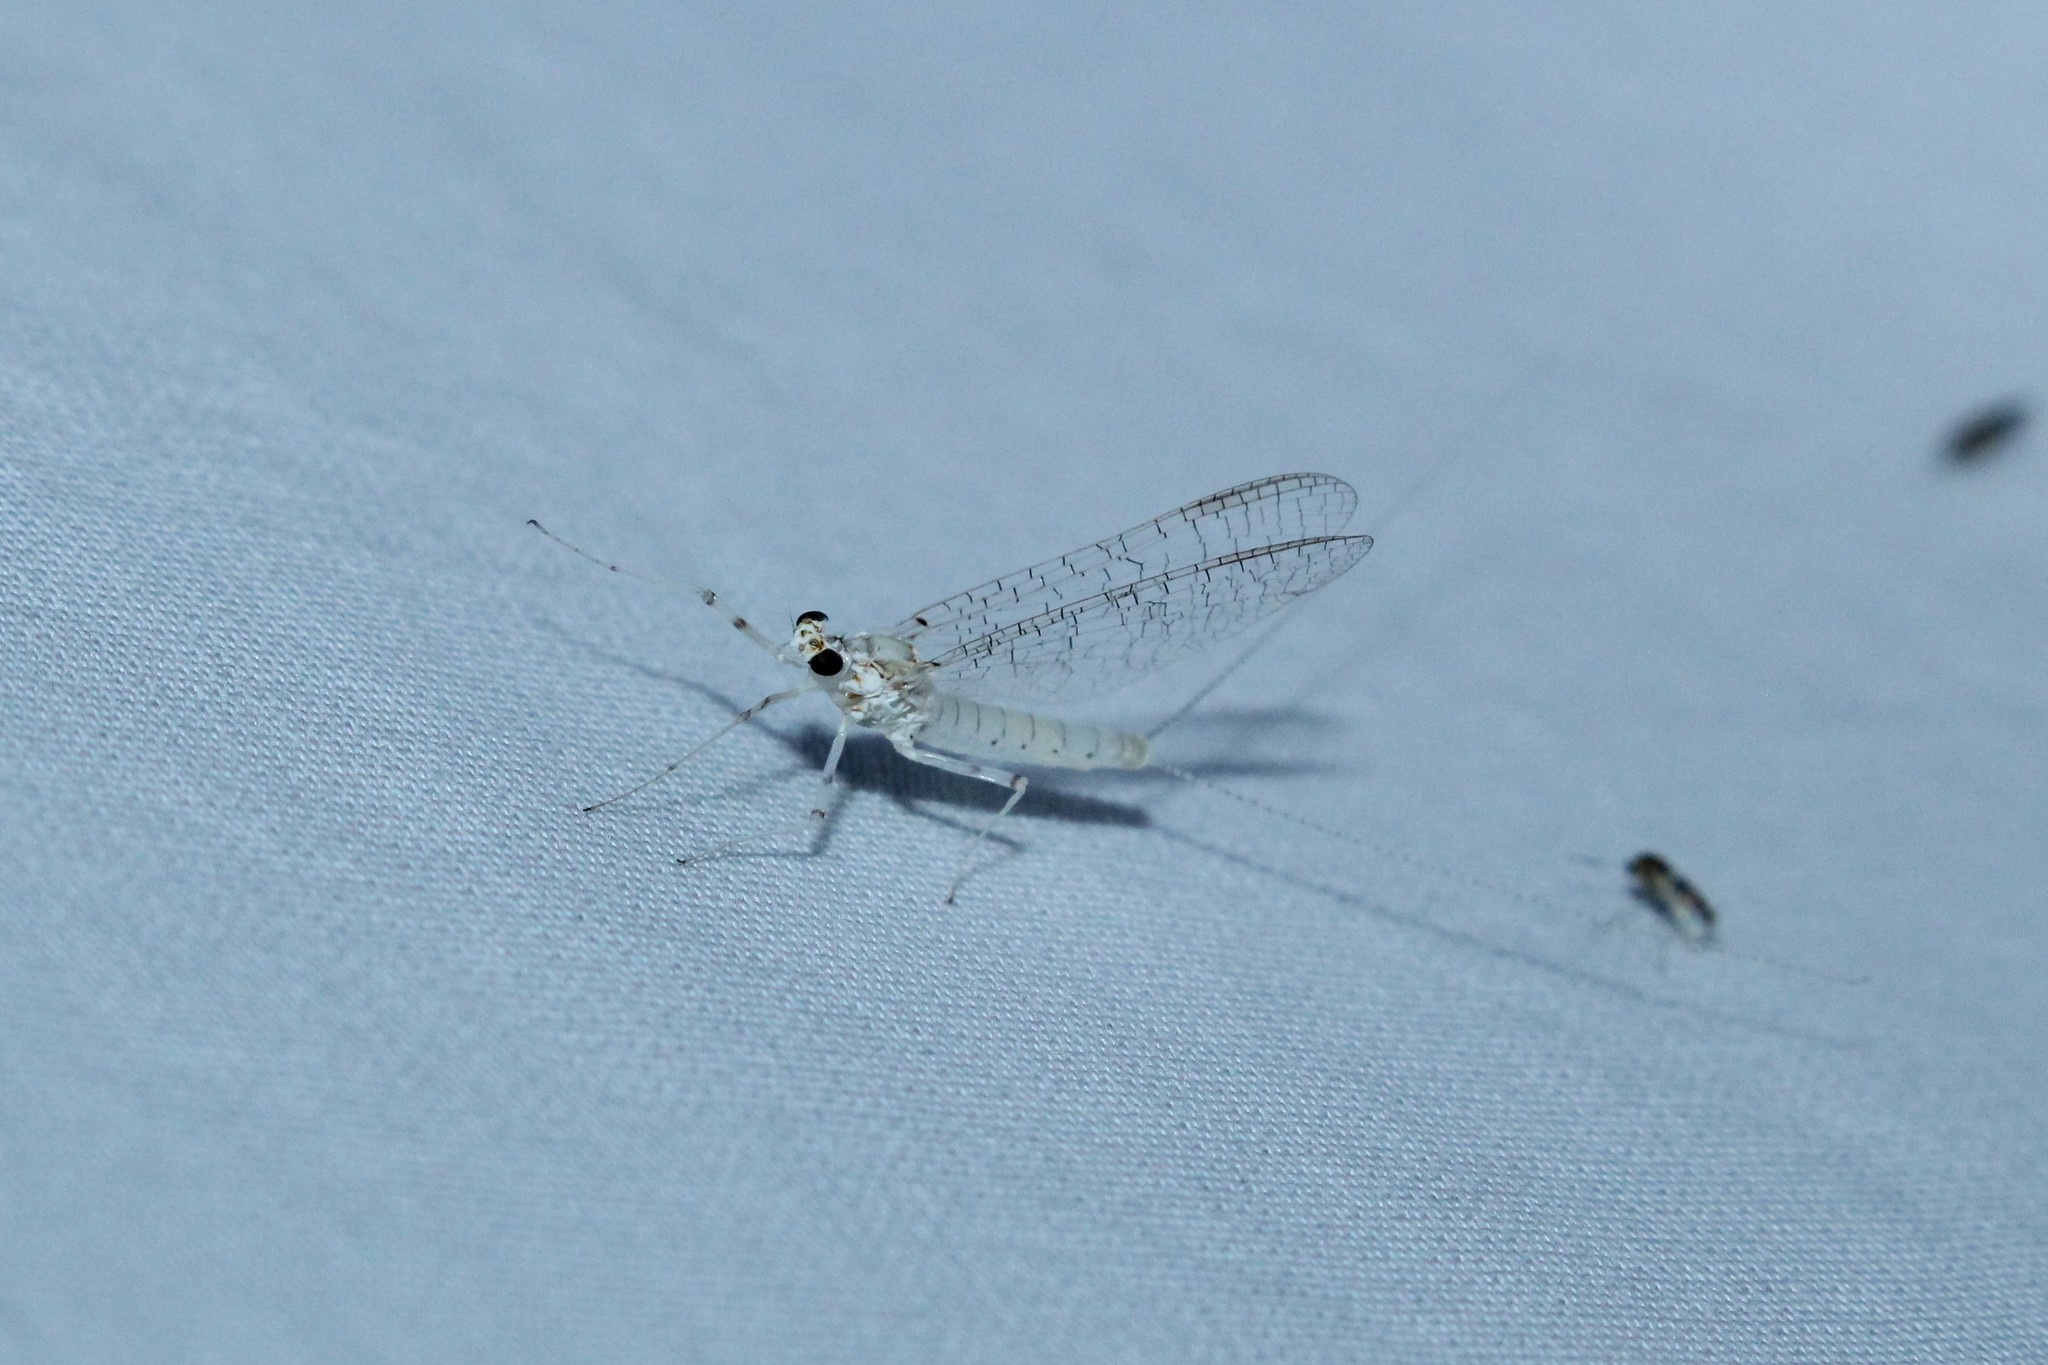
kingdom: Animalia
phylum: Arthropoda
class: Insecta
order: Ephemeroptera
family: Heptageniidae
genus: Maccaffertium
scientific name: Maccaffertium modestum
